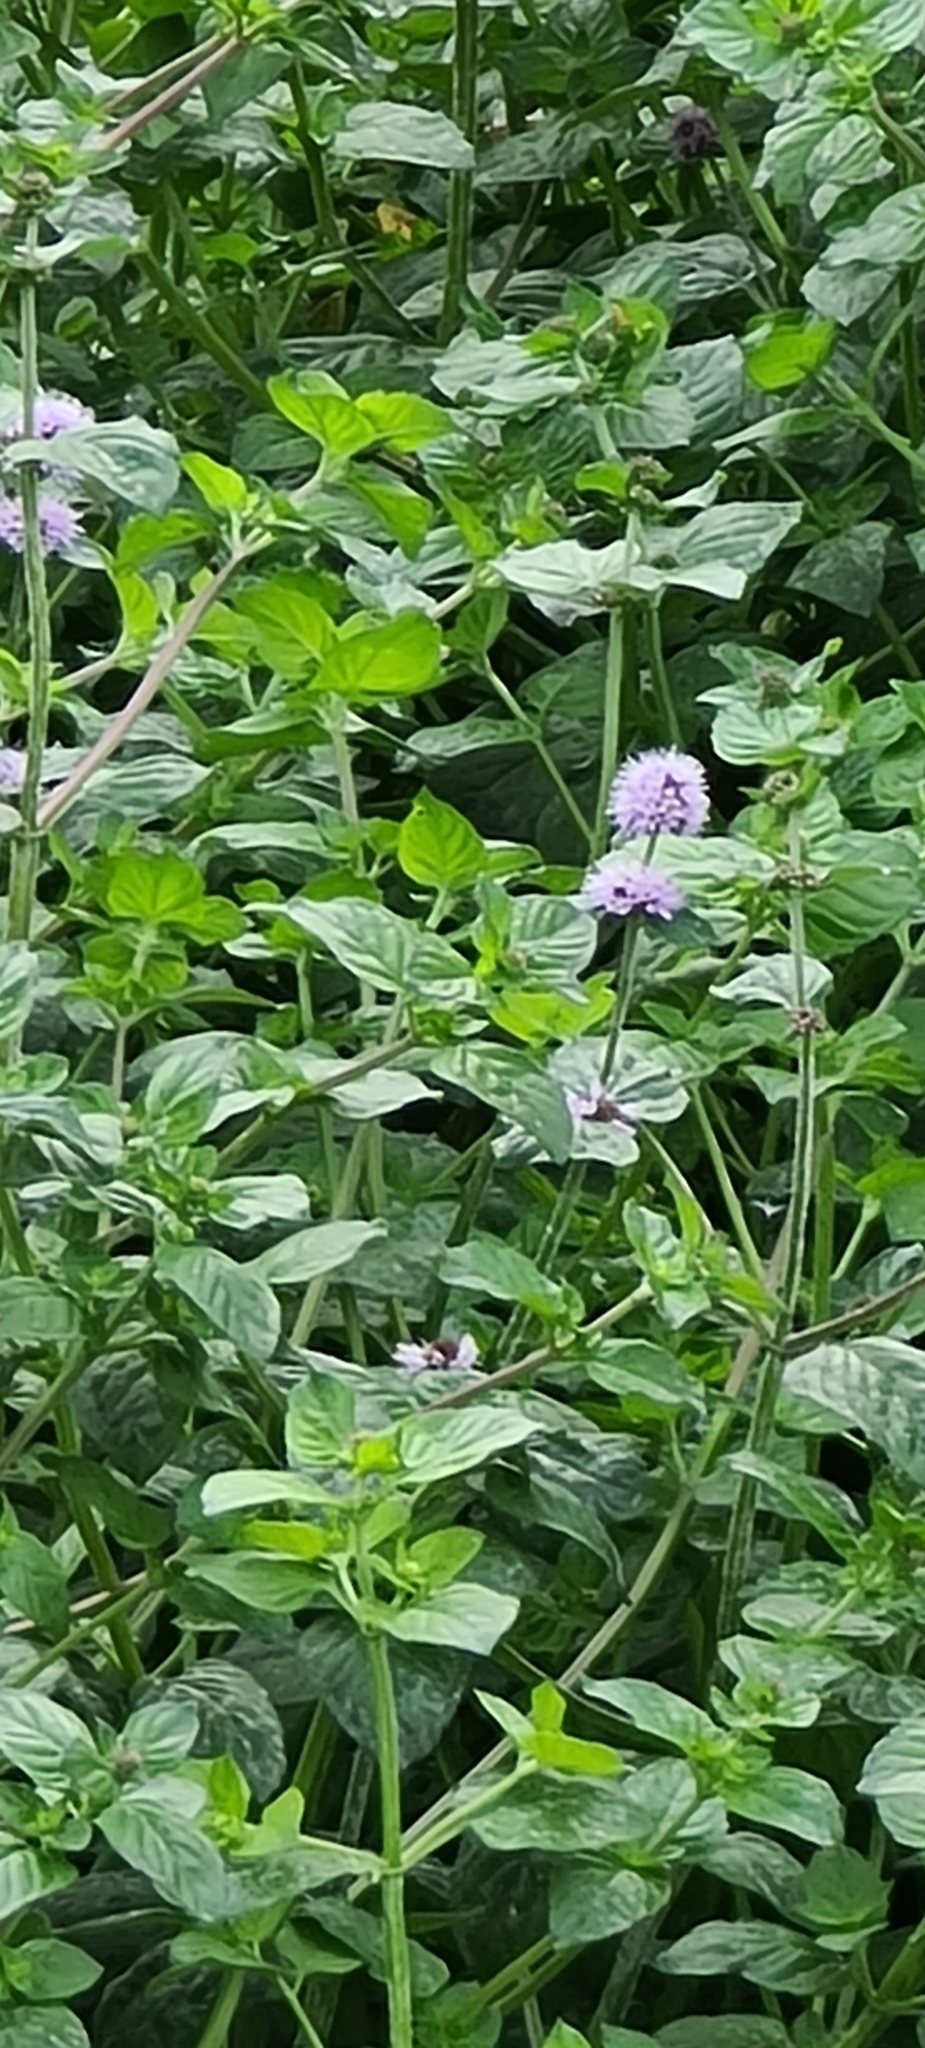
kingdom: Plantae
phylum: Tracheophyta
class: Magnoliopsida
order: Lamiales
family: Lamiaceae
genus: Mentha
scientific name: Mentha aquatica
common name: Water mint
